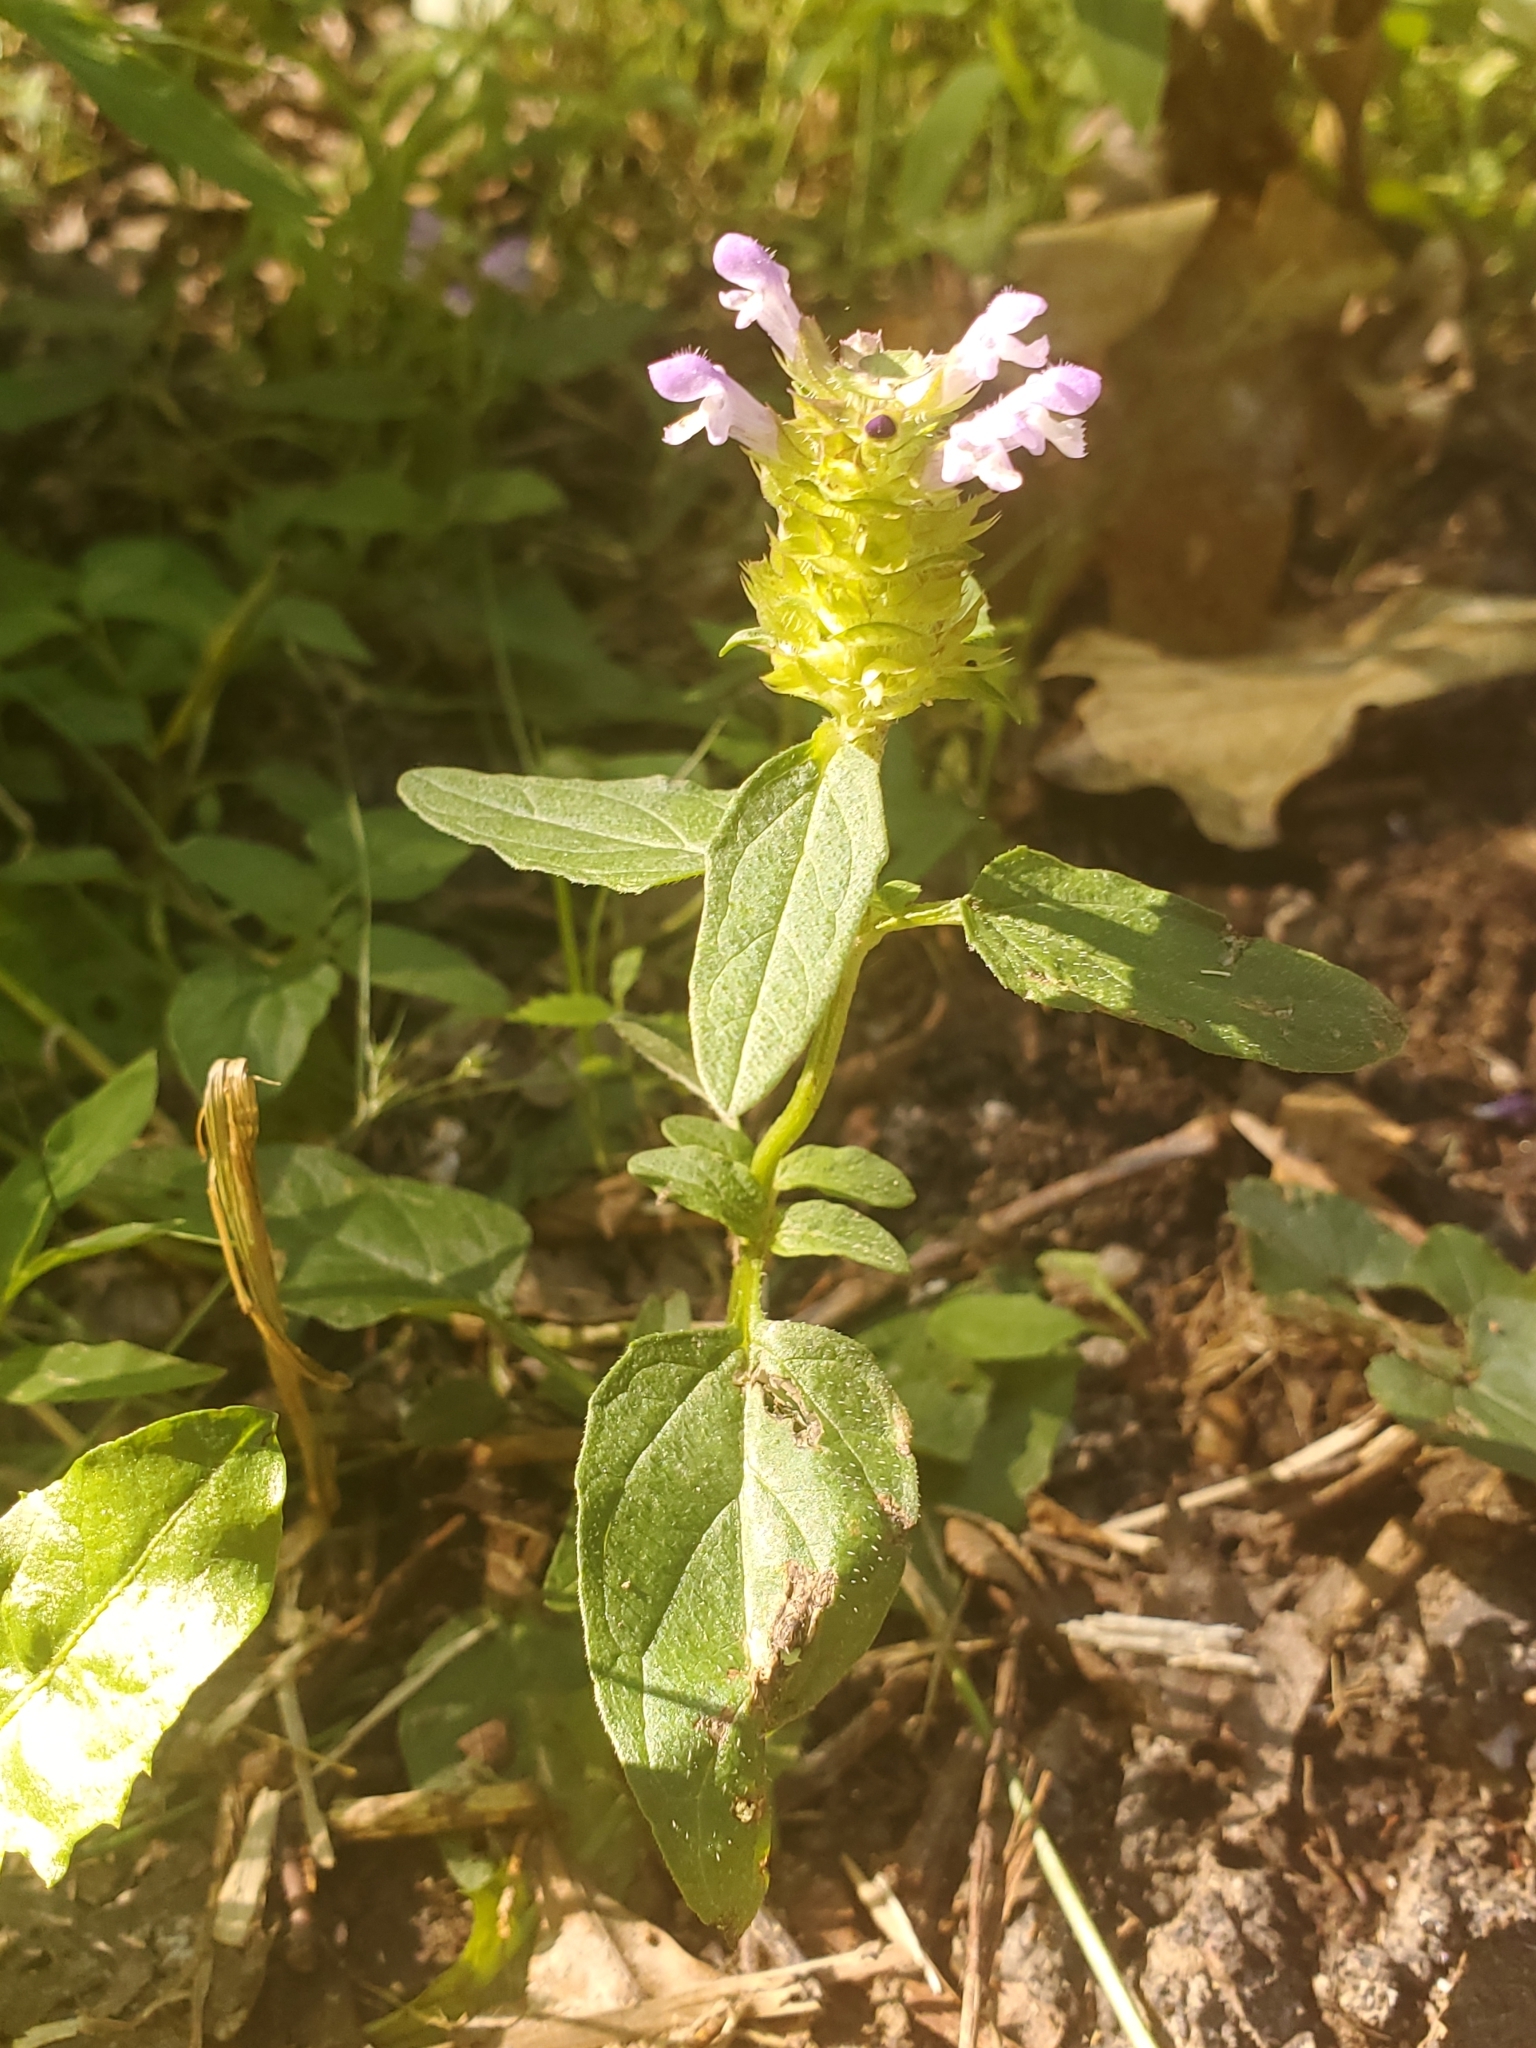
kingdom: Plantae
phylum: Tracheophyta
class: Magnoliopsida
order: Lamiales
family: Lamiaceae
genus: Prunella
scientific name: Prunella vulgaris
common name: Heal-all
